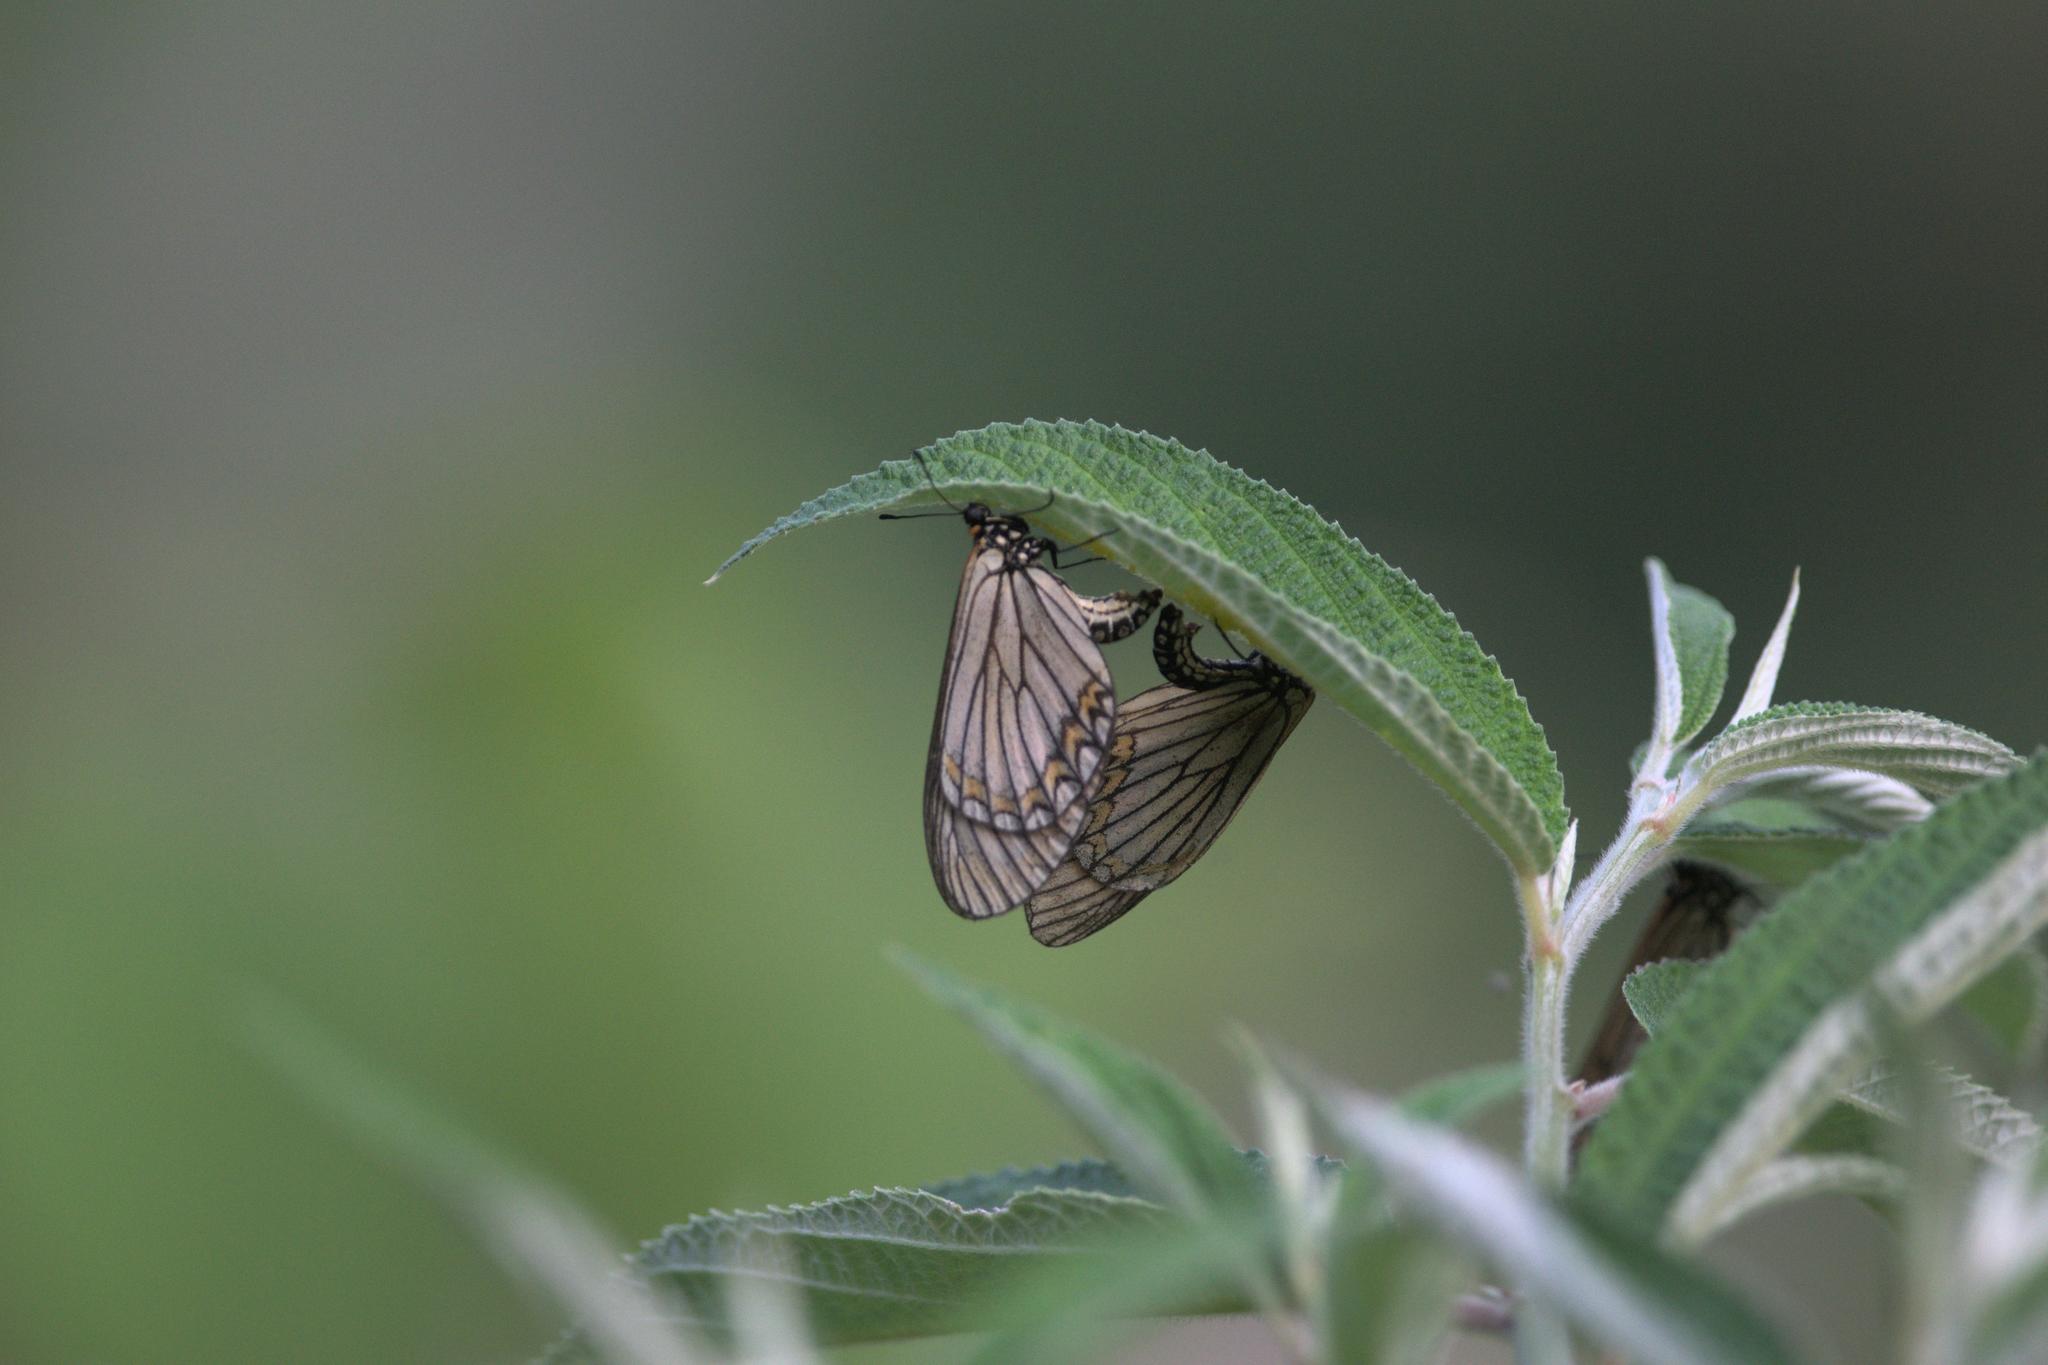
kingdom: Animalia
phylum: Arthropoda
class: Insecta
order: Lepidoptera
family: Nymphalidae
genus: Acraea
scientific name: Acraea Telchinia issoria
